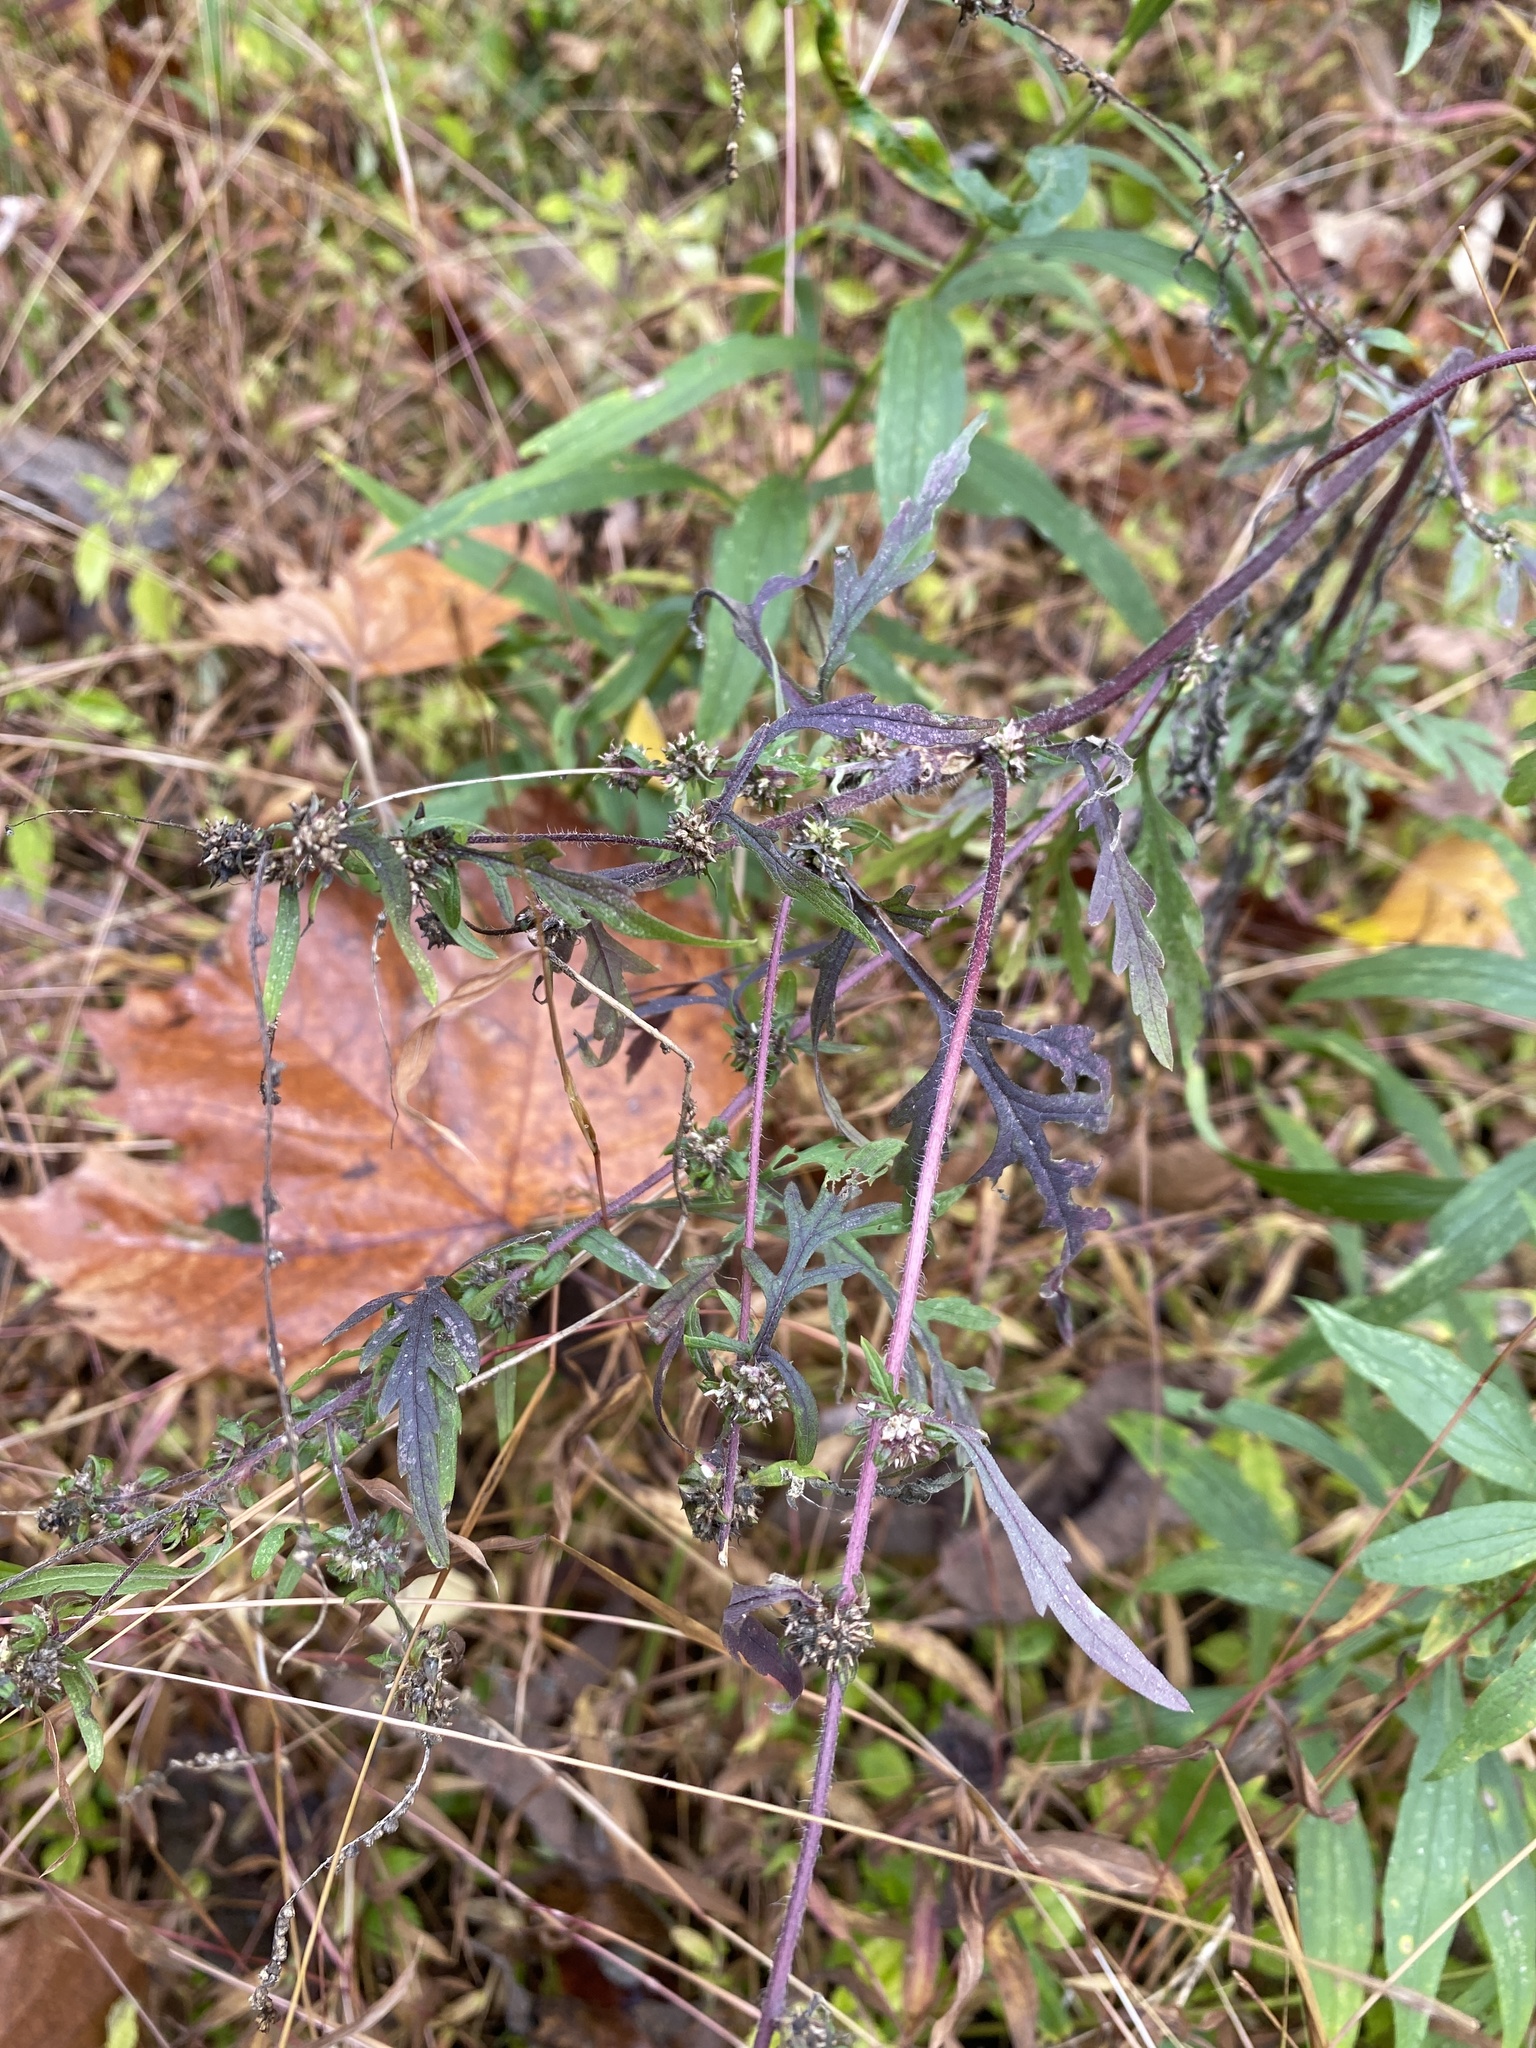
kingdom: Plantae
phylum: Tracheophyta
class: Magnoliopsida
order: Asterales
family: Asteraceae
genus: Artemisia
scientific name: Artemisia vulgaris
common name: Mugwort
